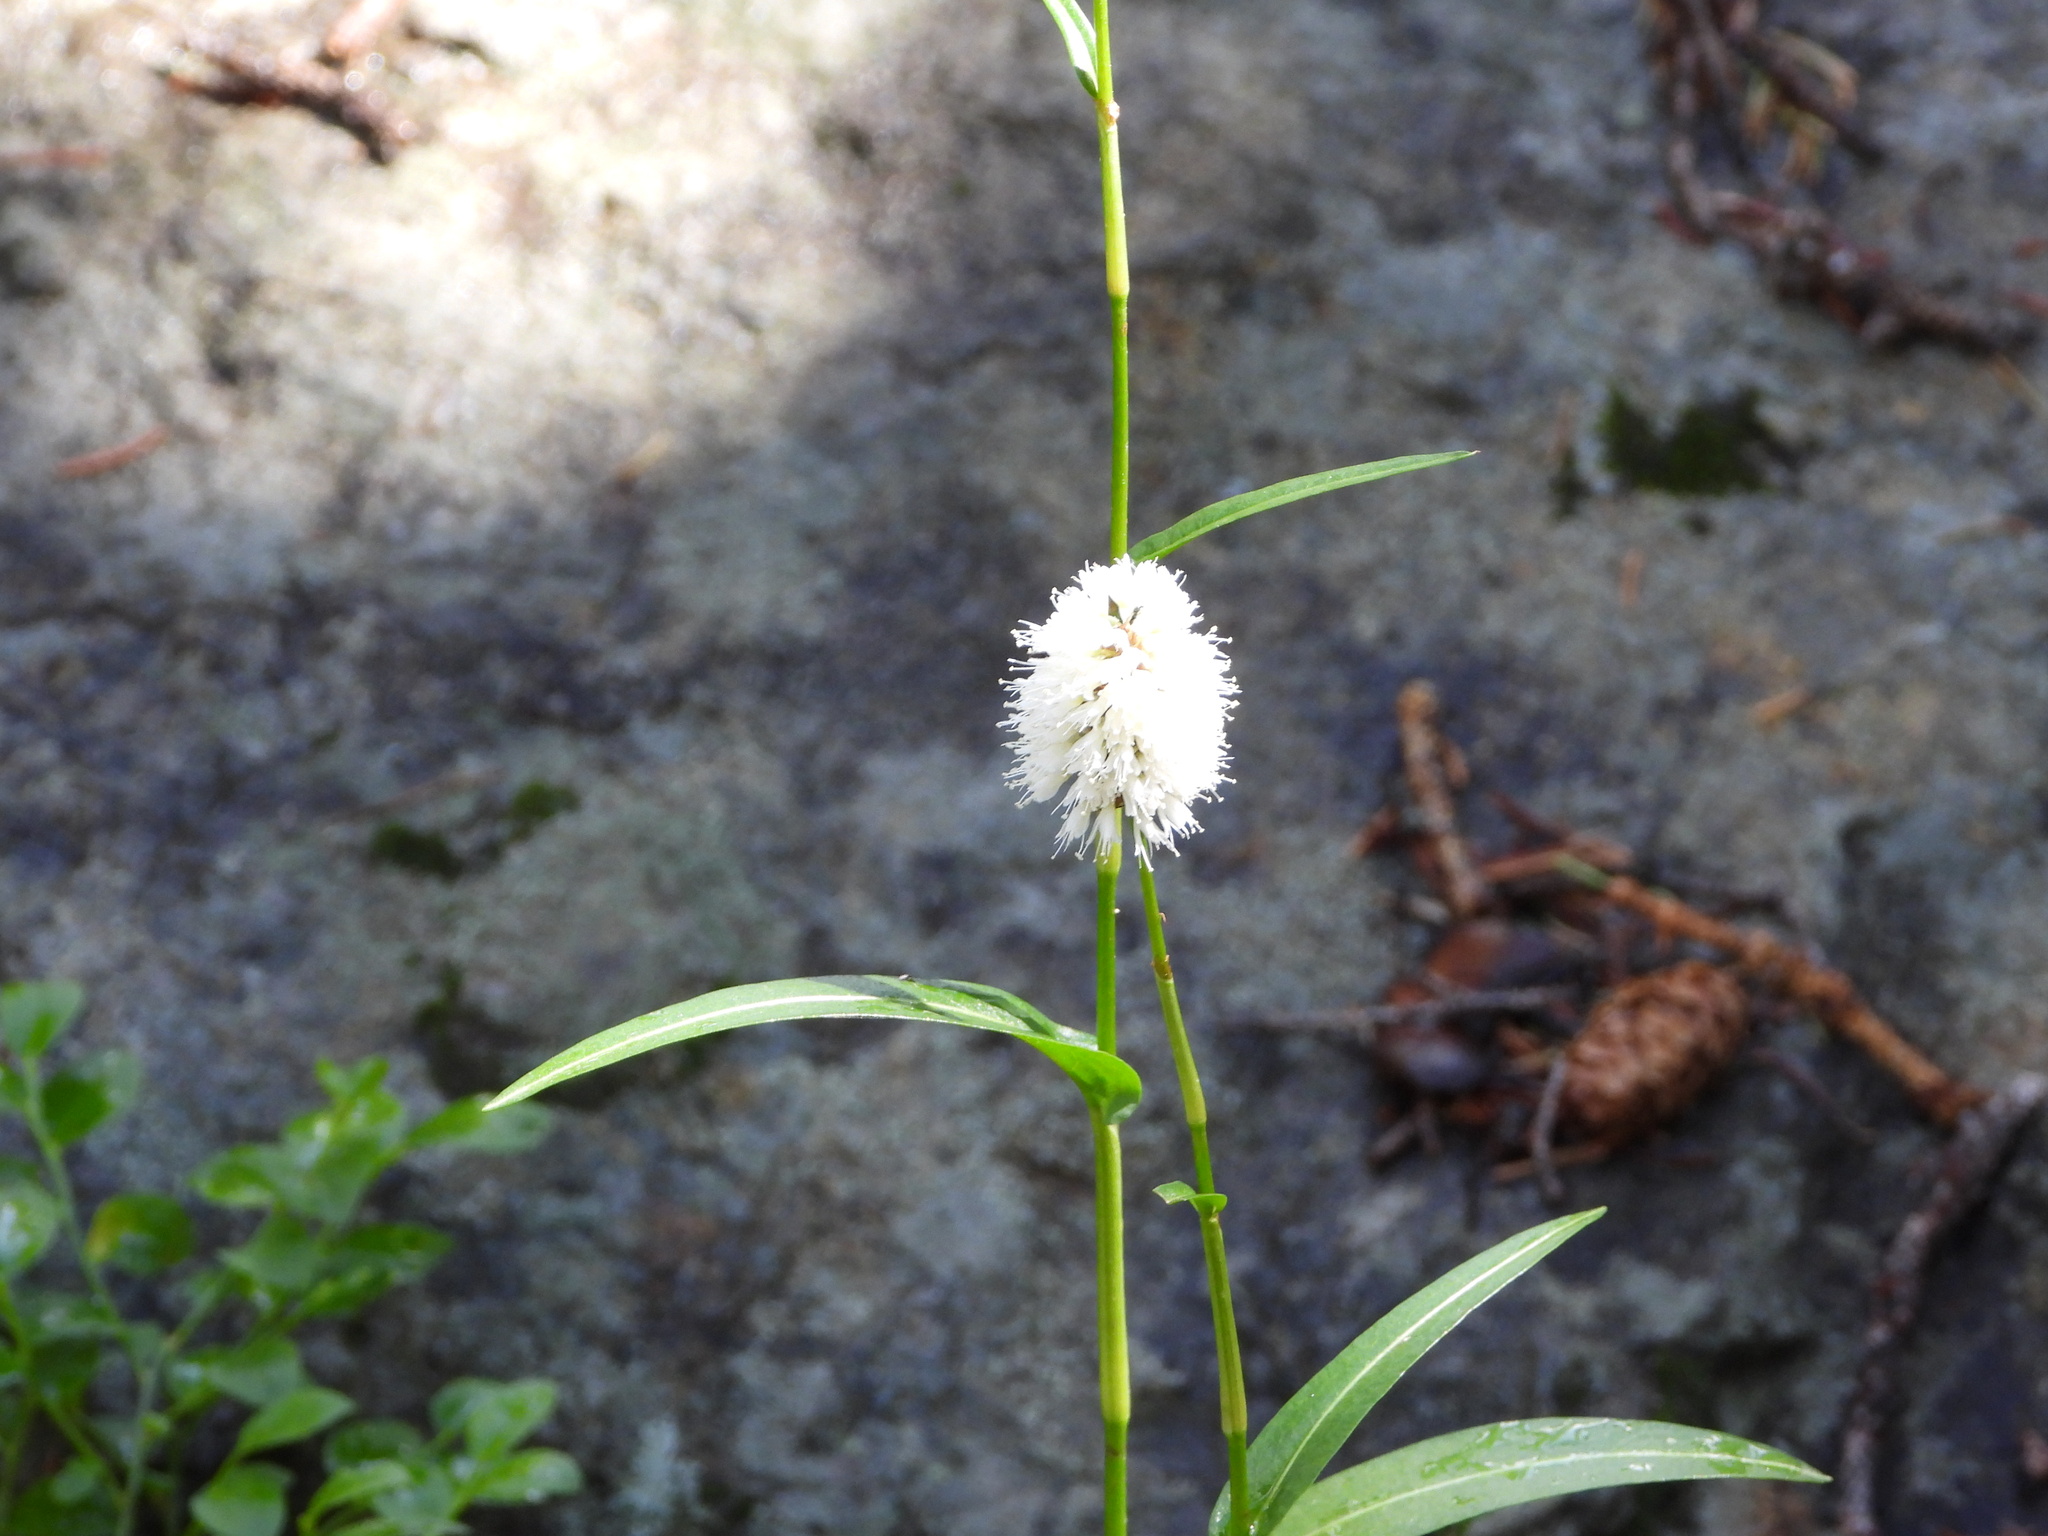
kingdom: Plantae
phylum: Tracheophyta
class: Magnoliopsida
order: Caryophyllales
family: Polygonaceae
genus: Bistorta
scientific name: Bistorta bistortoides
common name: American bistort
